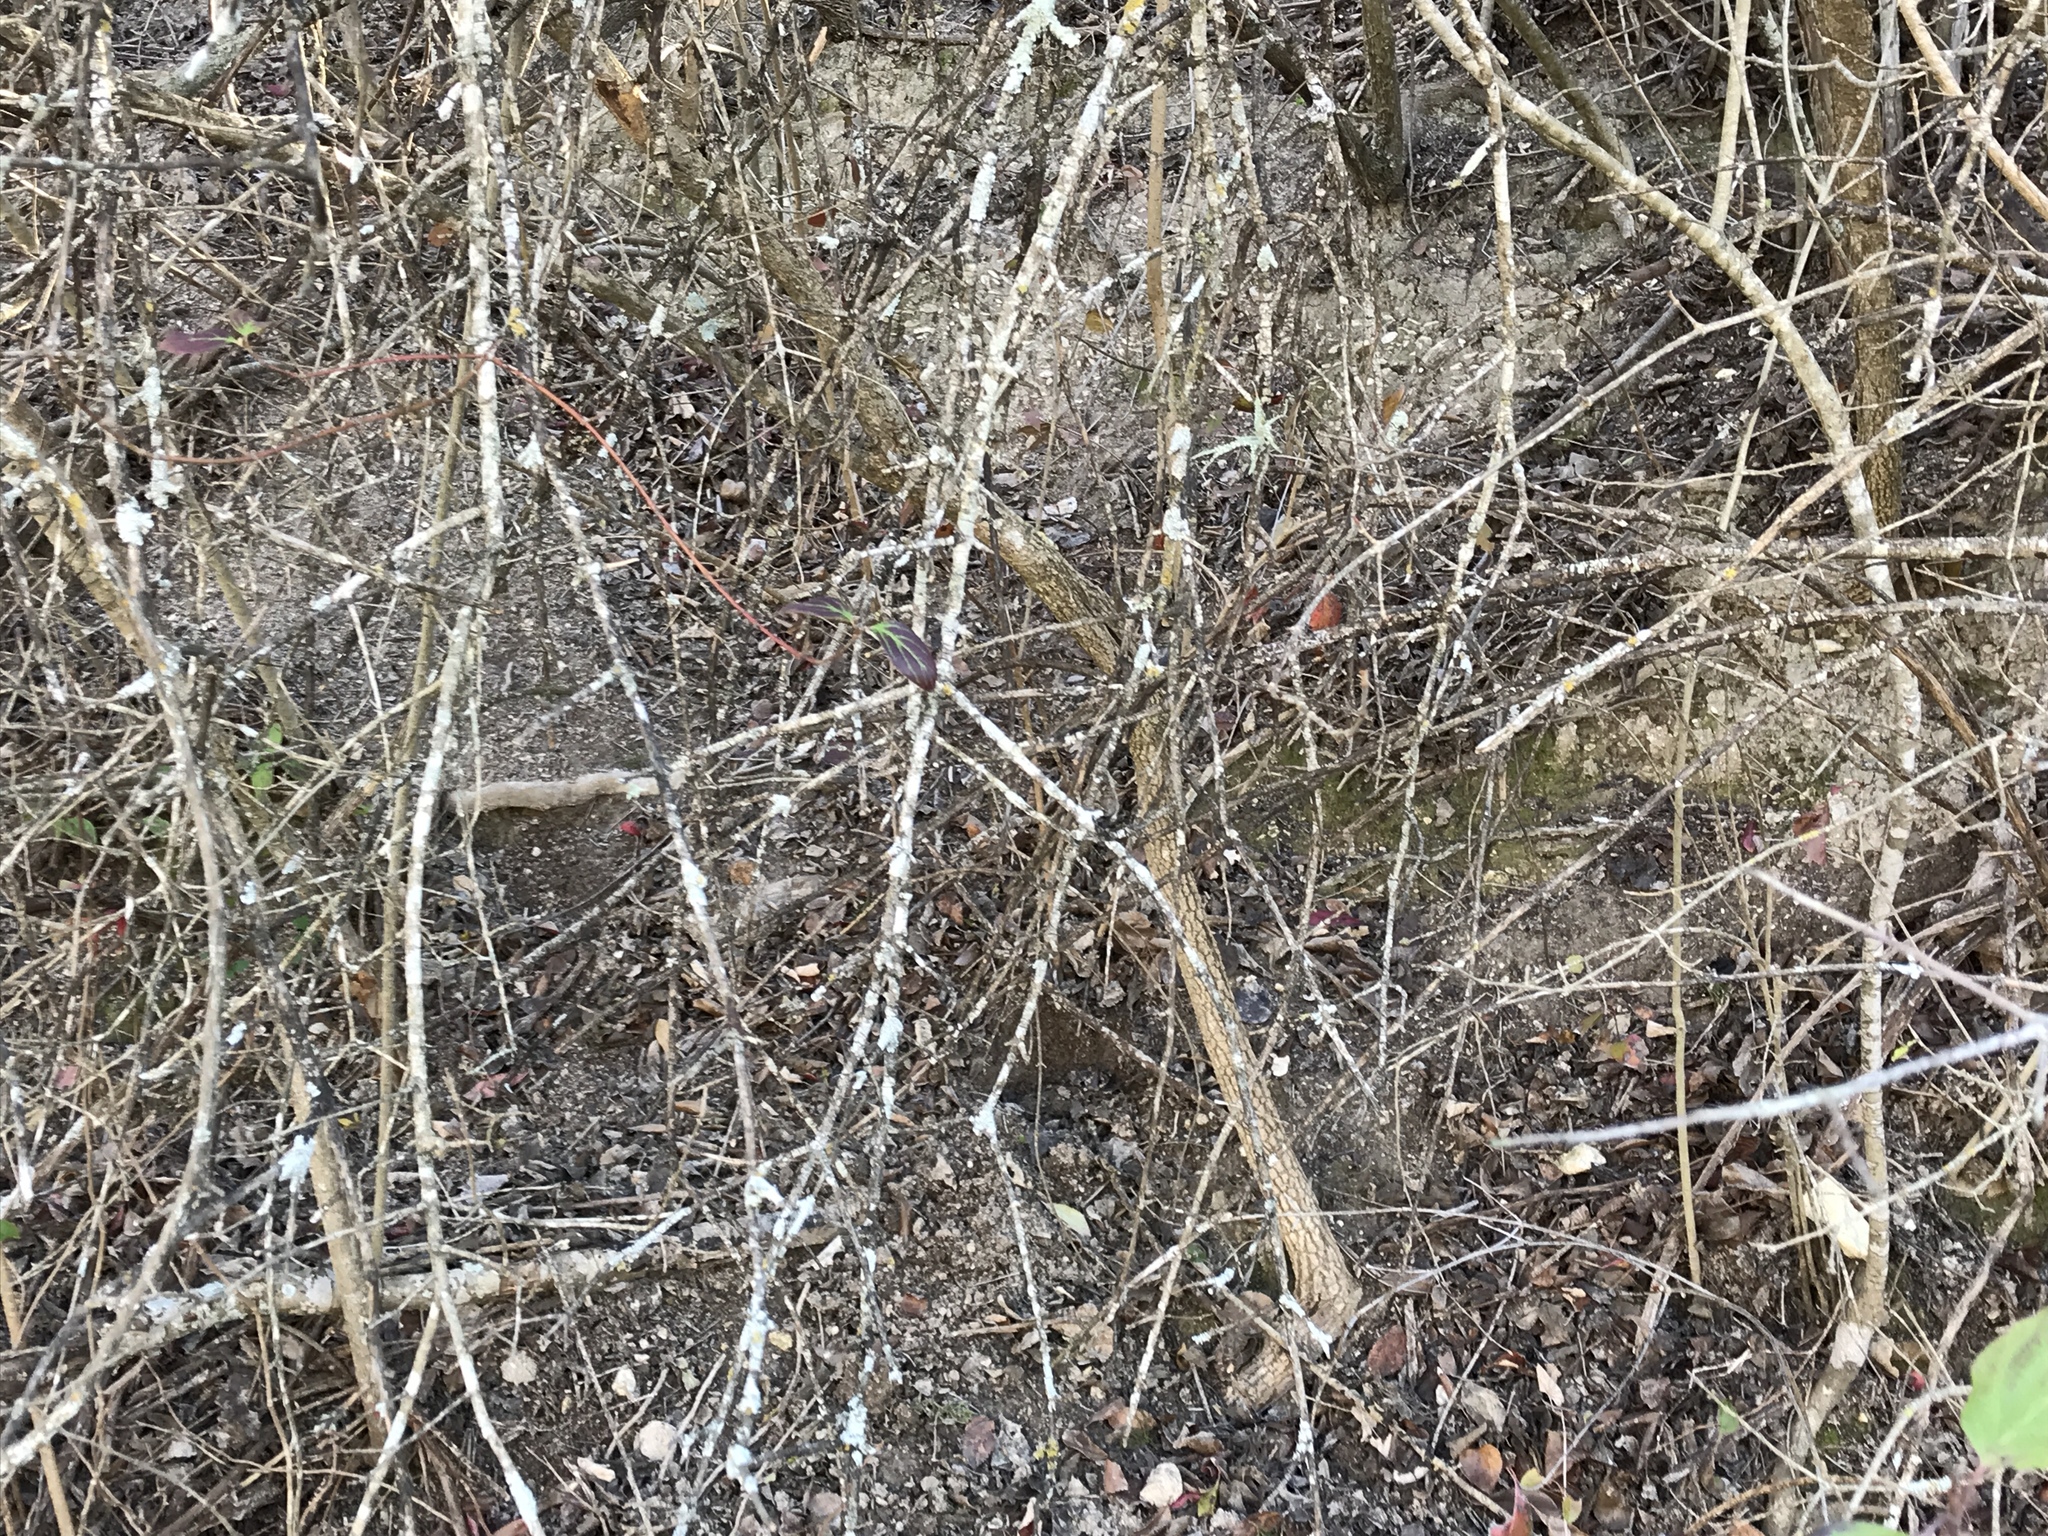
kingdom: Plantae
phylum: Tracheophyta
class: Magnoliopsida
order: Dipsacales
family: Viburnaceae
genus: Viburnum
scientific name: Viburnum rufidulum
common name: Blue haw
